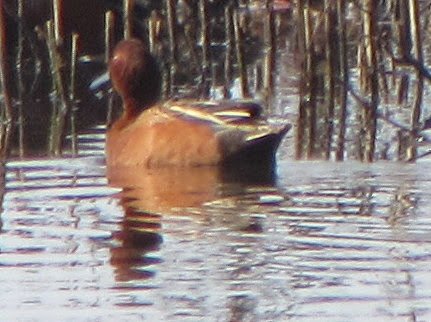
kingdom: Animalia
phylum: Chordata
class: Aves
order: Anseriformes
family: Anatidae
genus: Spatula
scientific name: Spatula cyanoptera
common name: Cinnamon teal
